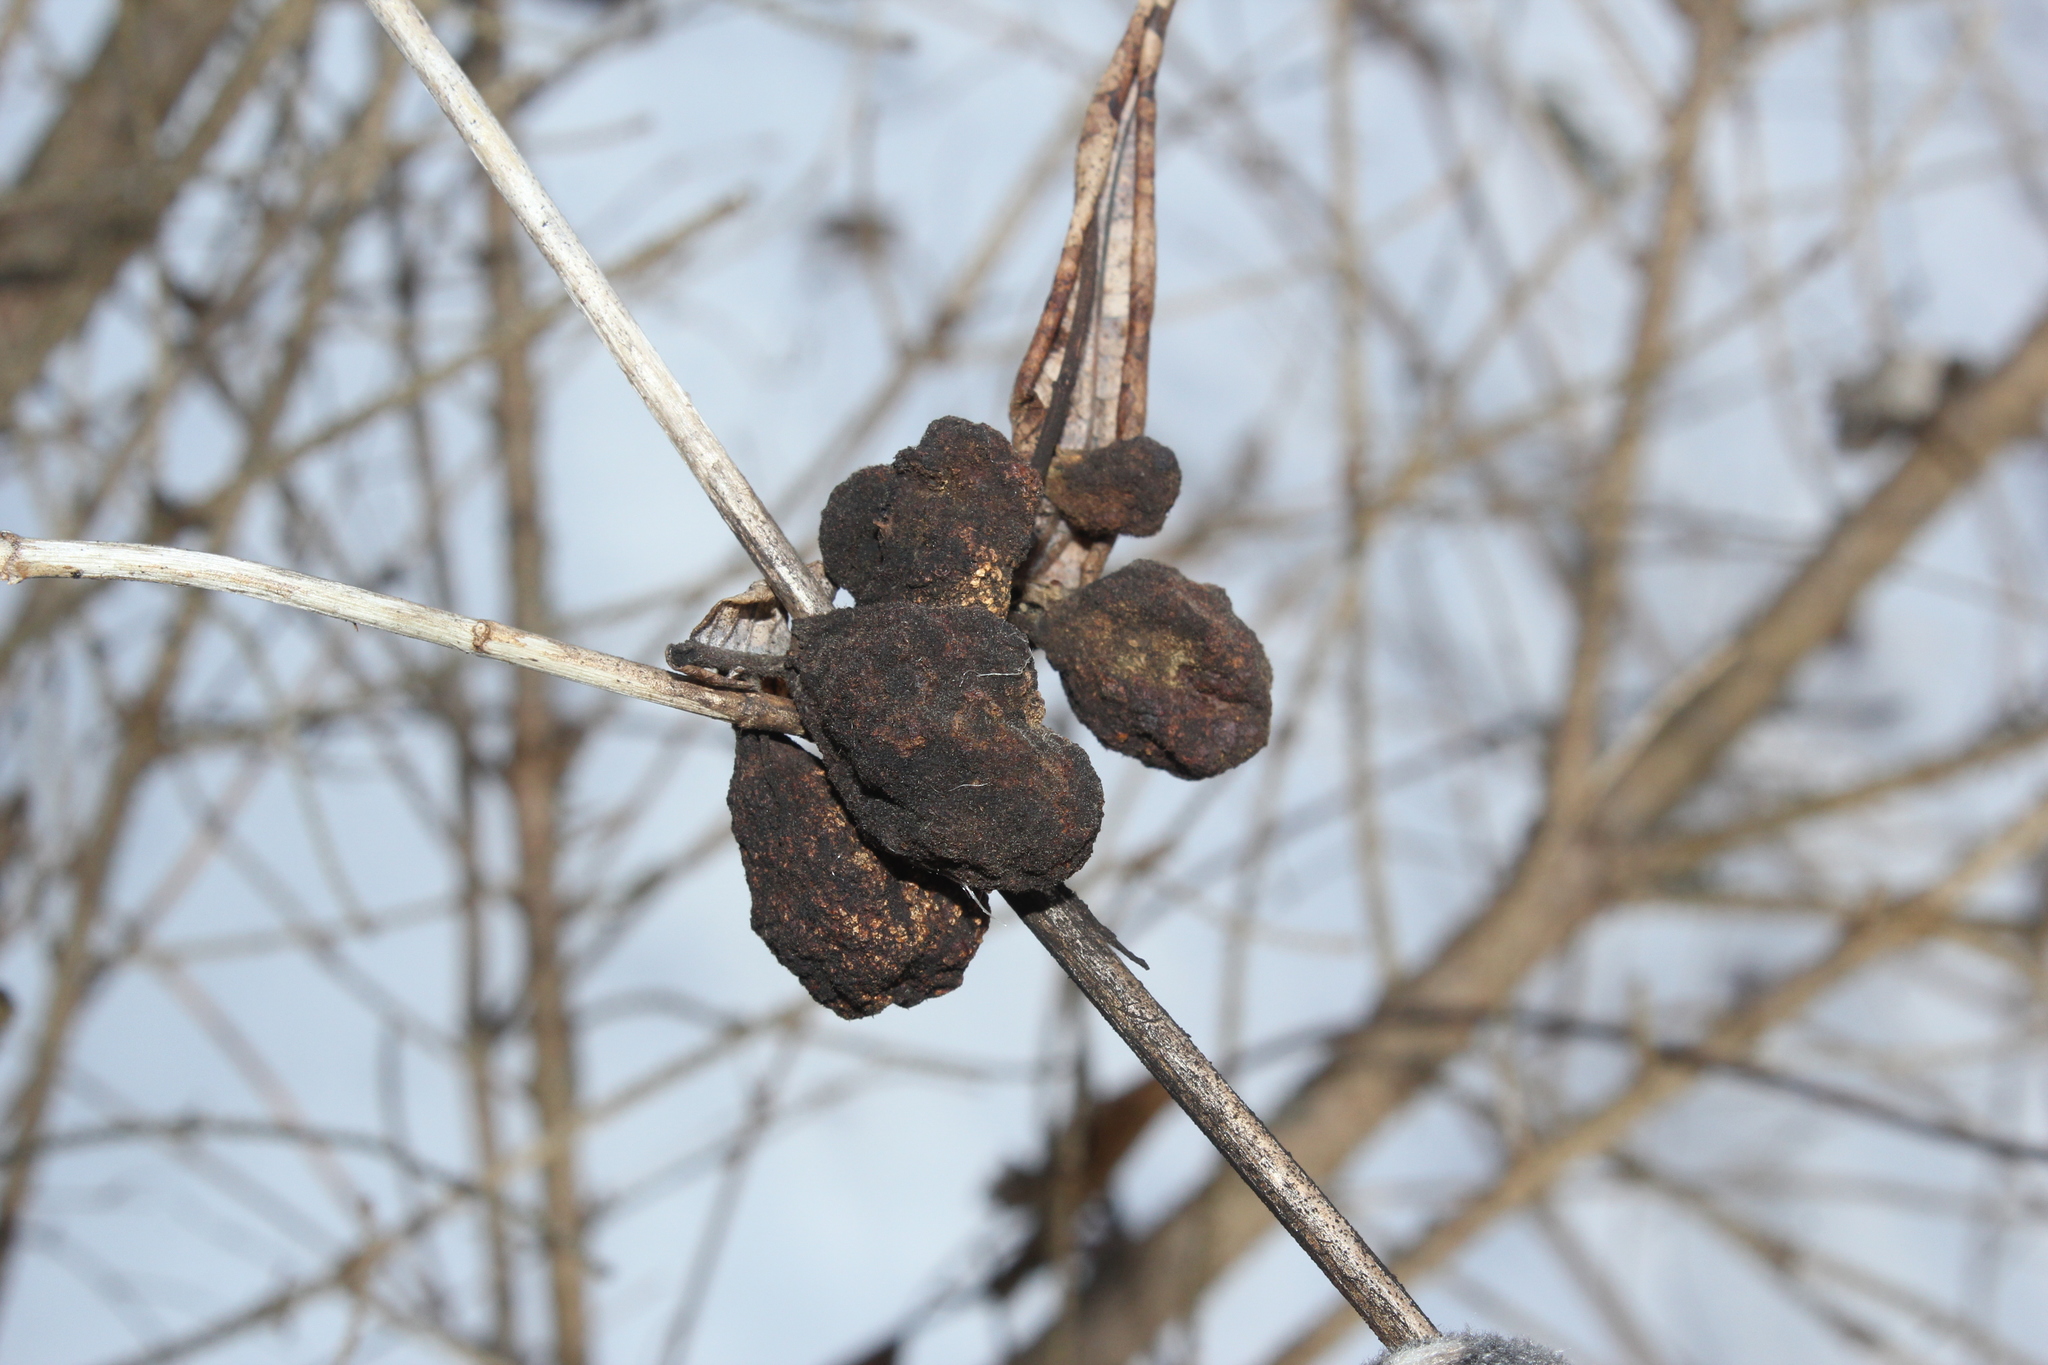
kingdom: Animalia
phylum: Arthropoda
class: Insecta
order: Hemiptera
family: Aphididae
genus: Melaphis
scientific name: Melaphis rhois
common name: Sumac gall aphid
